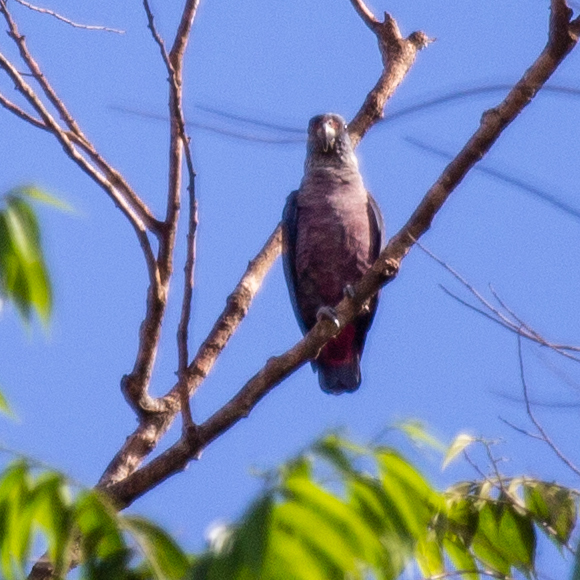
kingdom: Animalia
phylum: Chordata
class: Aves
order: Psittaciformes
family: Psittacidae
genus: Pionus
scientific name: Pionus fuscus
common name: Dusky parrot
